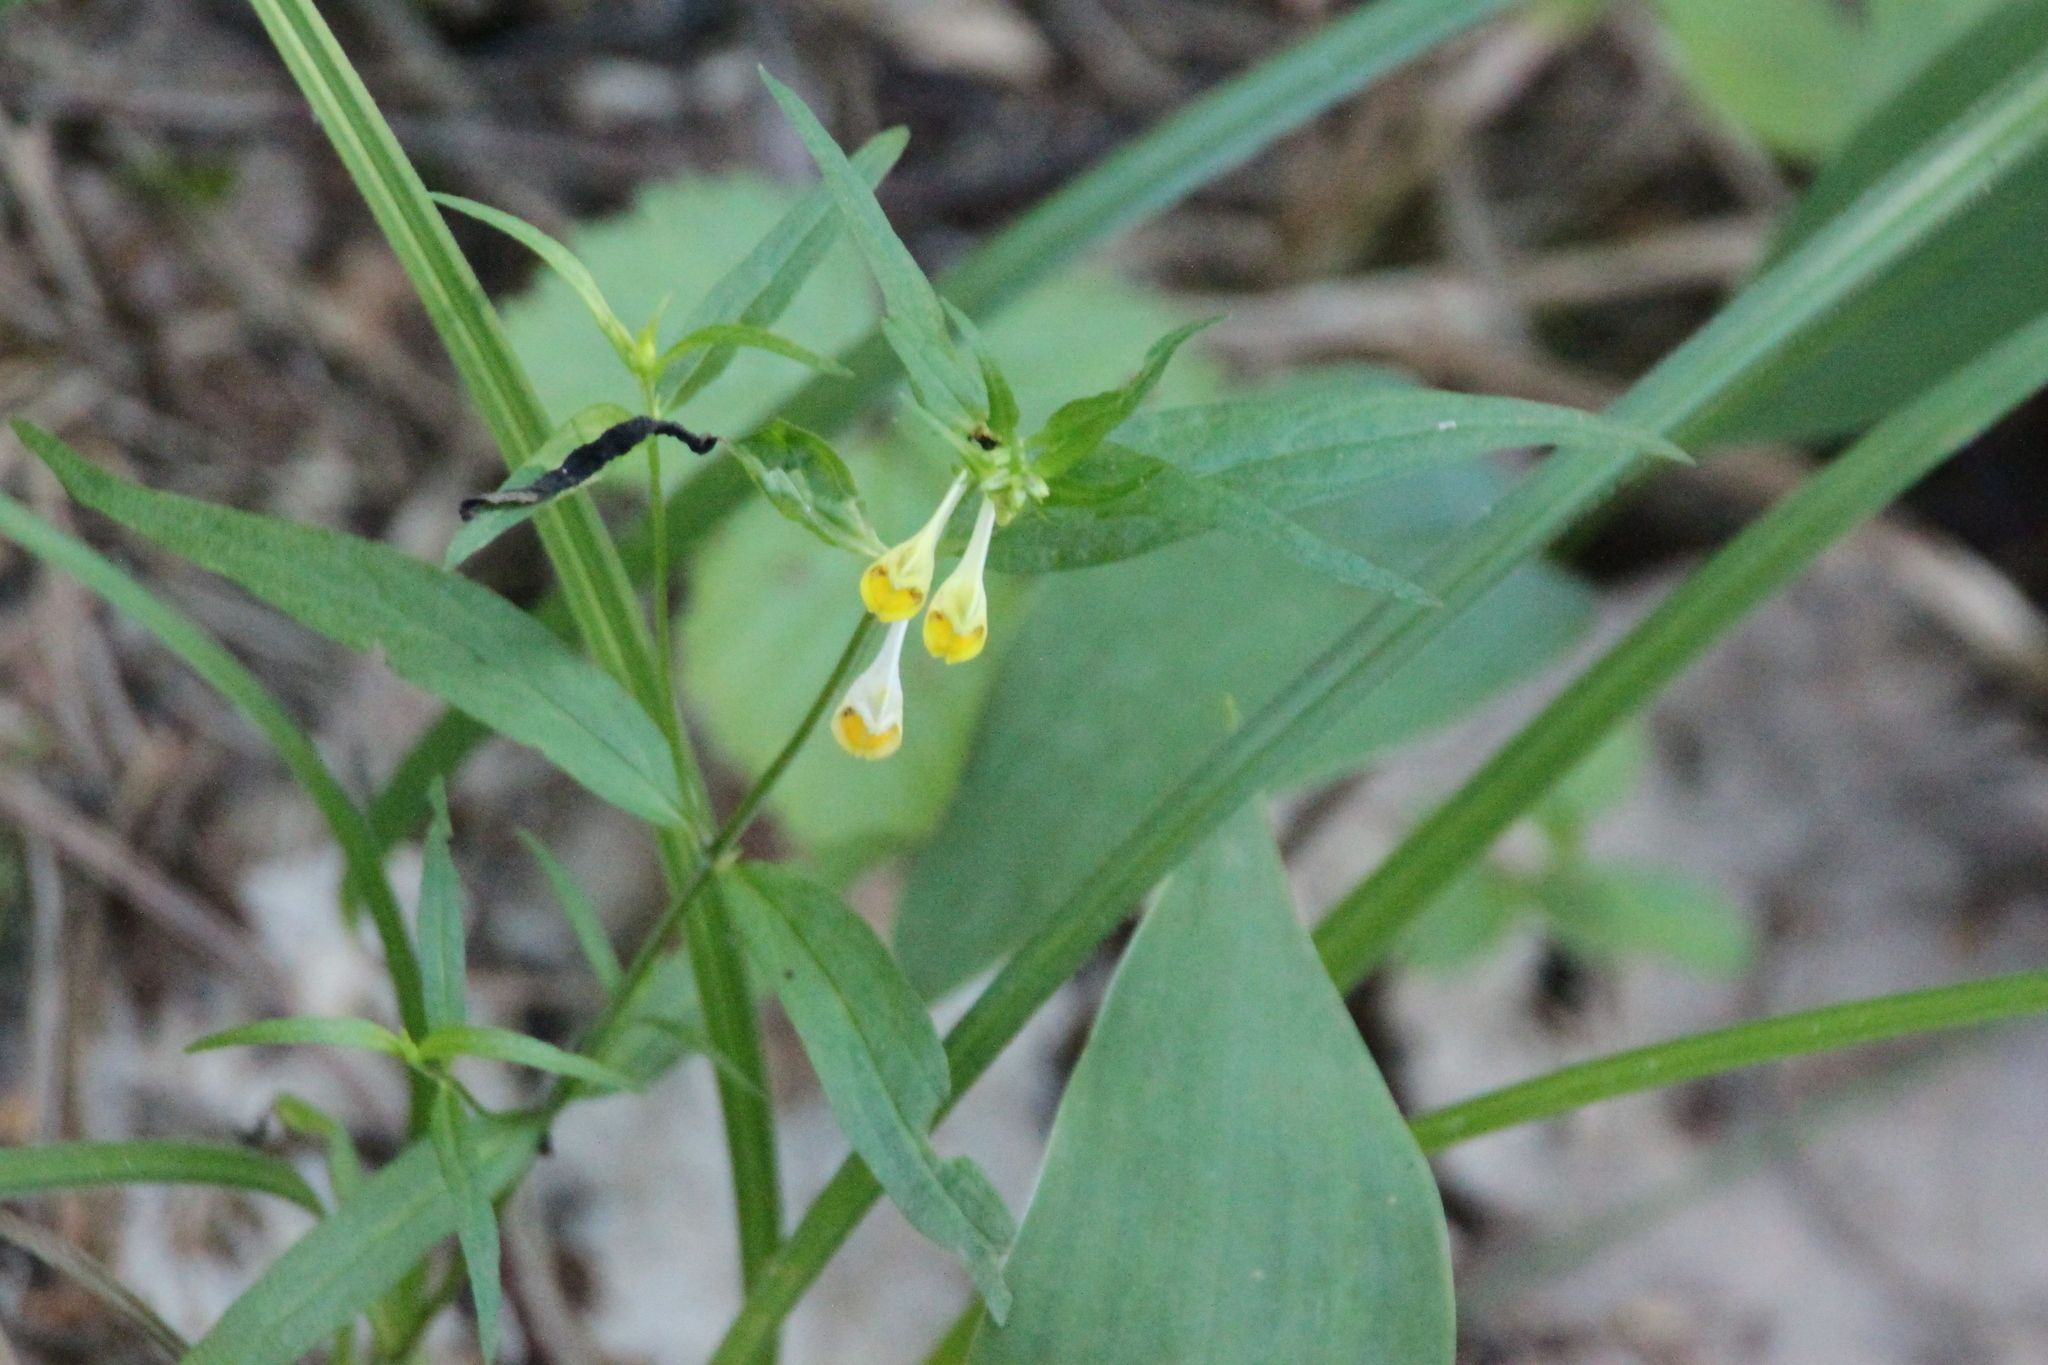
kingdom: Plantae
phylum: Tracheophyta
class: Magnoliopsida
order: Lamiales
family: Orobanchaceae
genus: Melampyrum
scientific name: Melampyrum pratense
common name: Common cow-wheat
